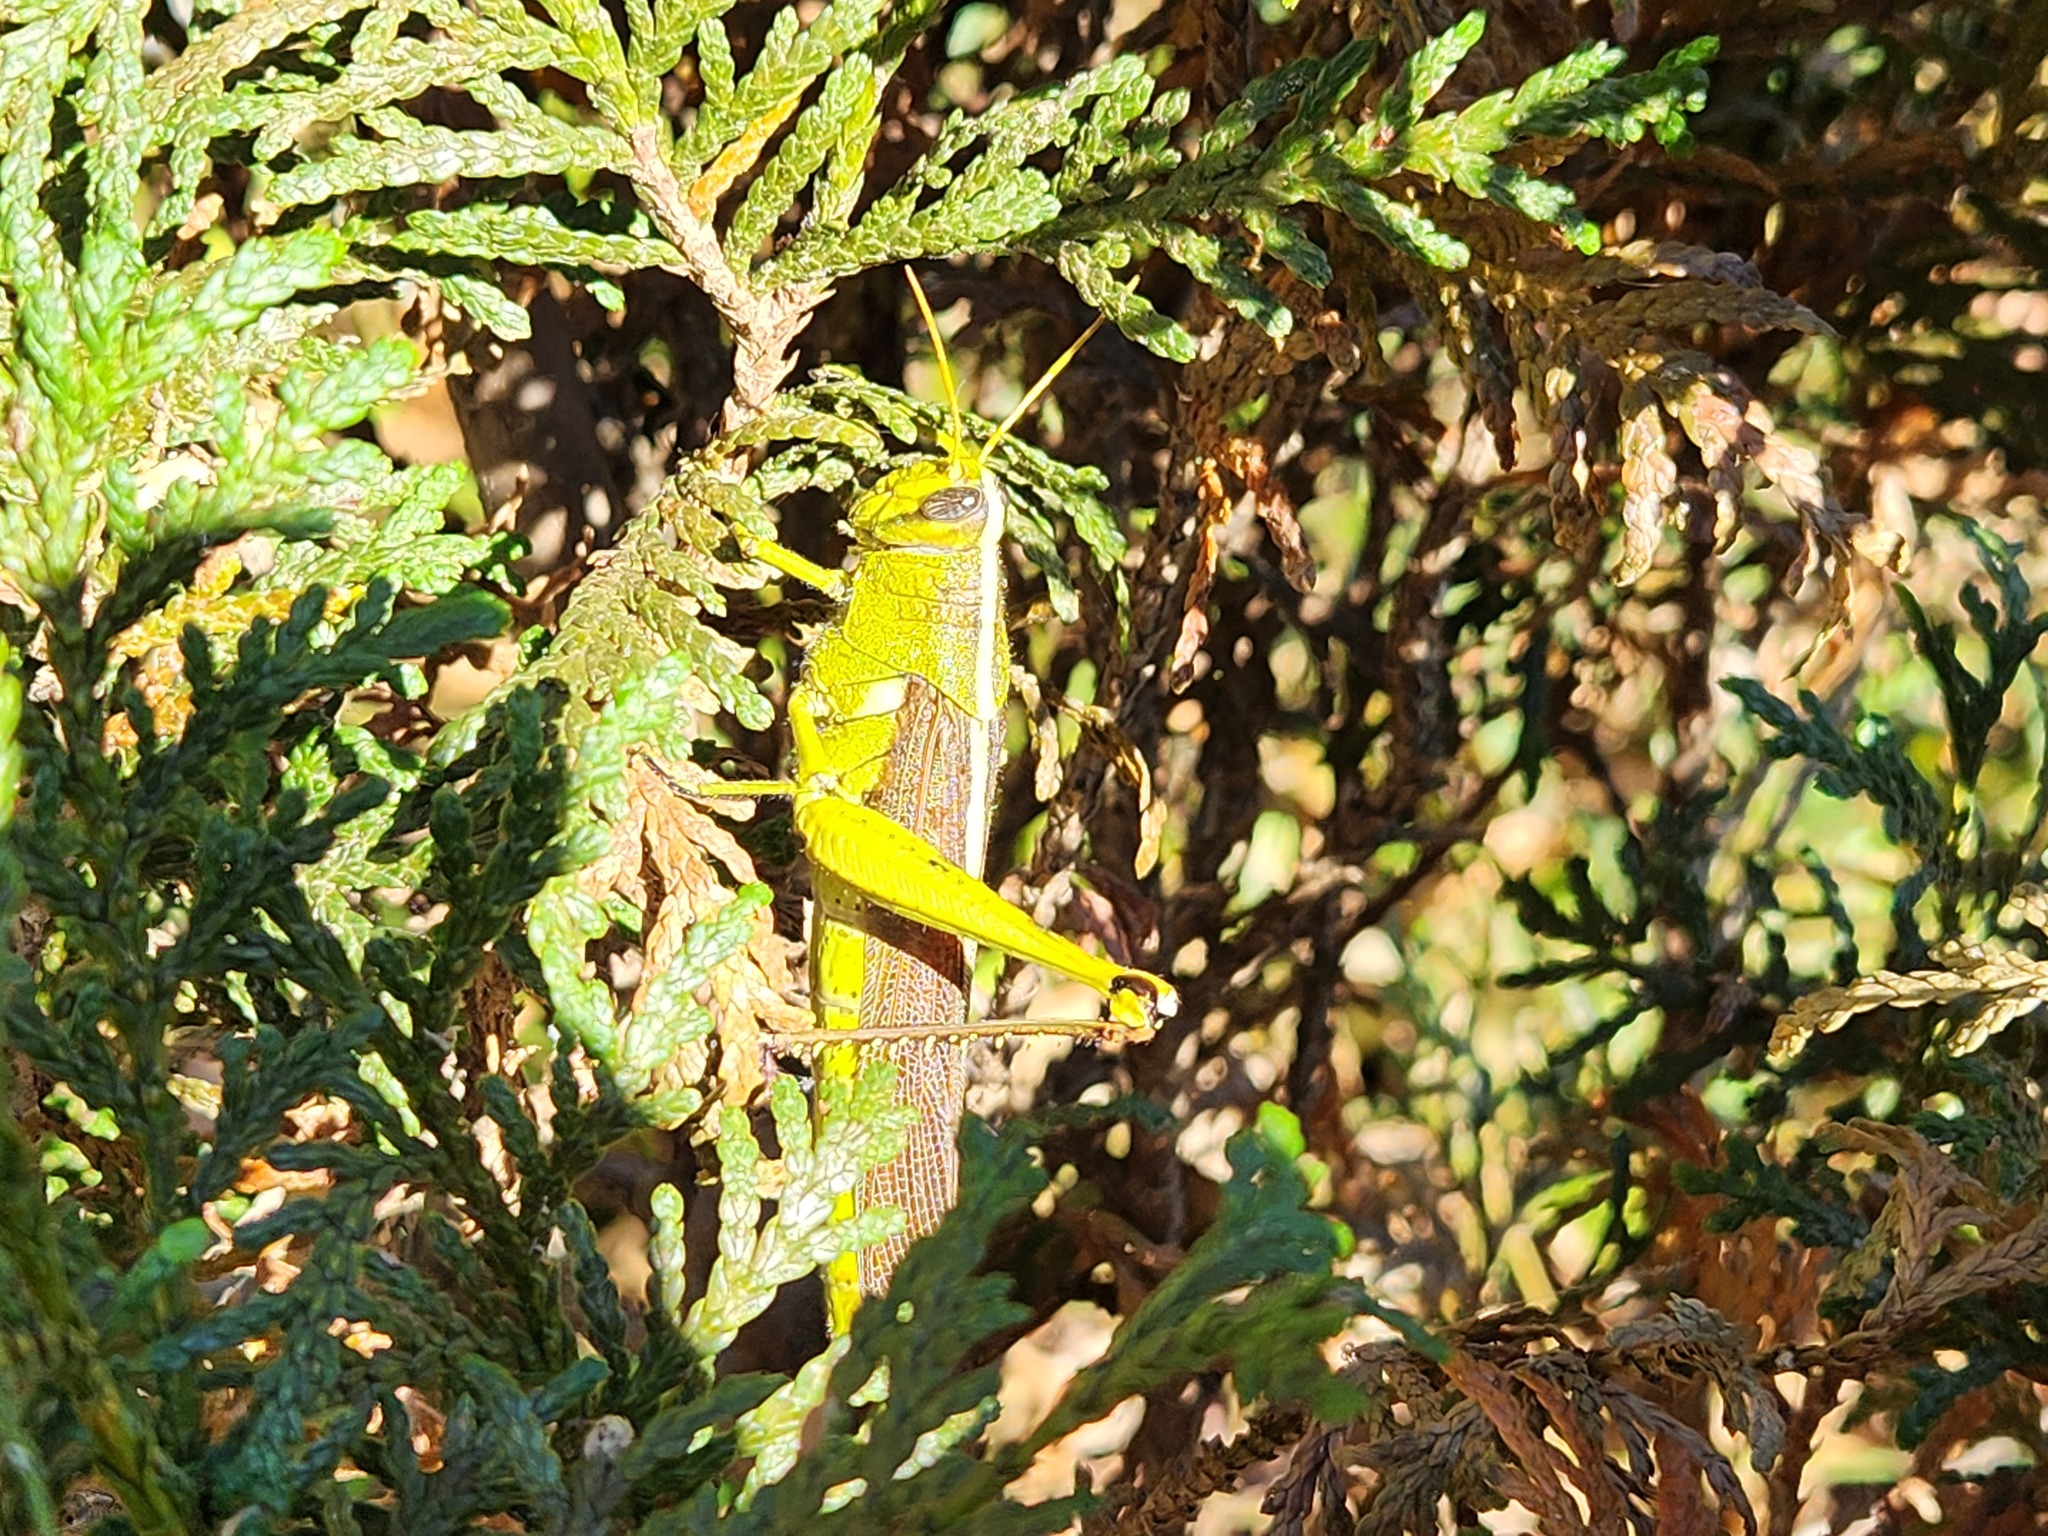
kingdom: Animalia
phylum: Arthropoda
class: Insecta
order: Orthoptera
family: Acrididae
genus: Schistocerca
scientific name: Schistocerca obscura
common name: Obscure bird grasshopper
